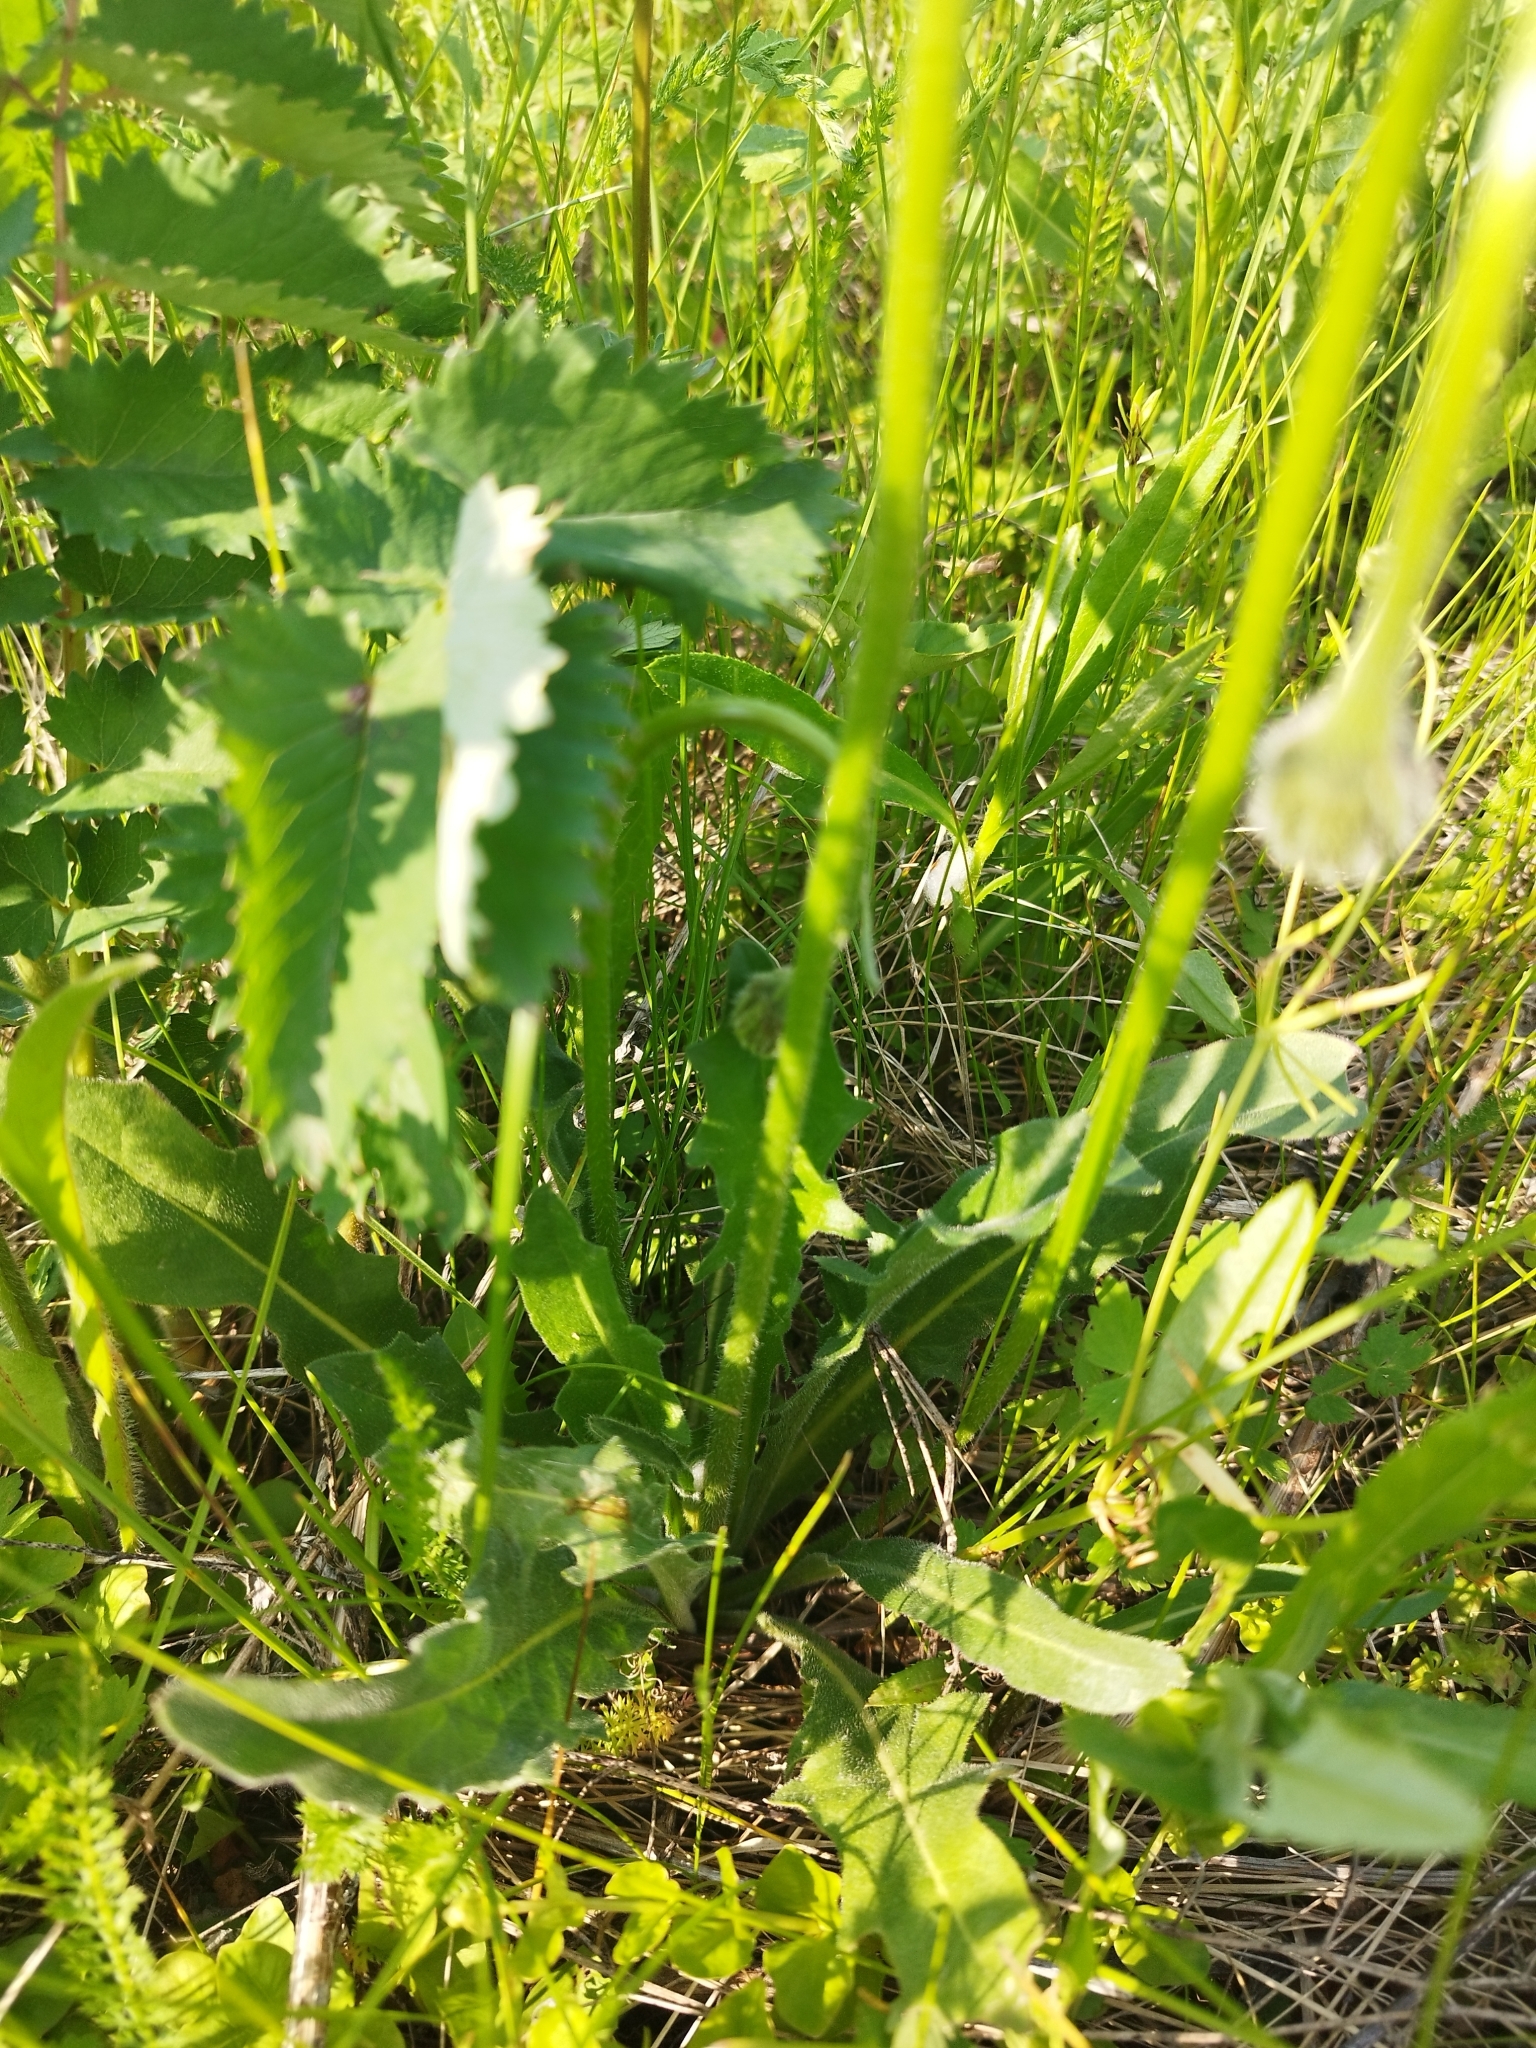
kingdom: Plantae
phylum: Tracheophyta
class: Magnoliopsida
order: Asterales
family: Asteraceae
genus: Leontodon
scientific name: Leontodon hispidus
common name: Rough hawkbit
